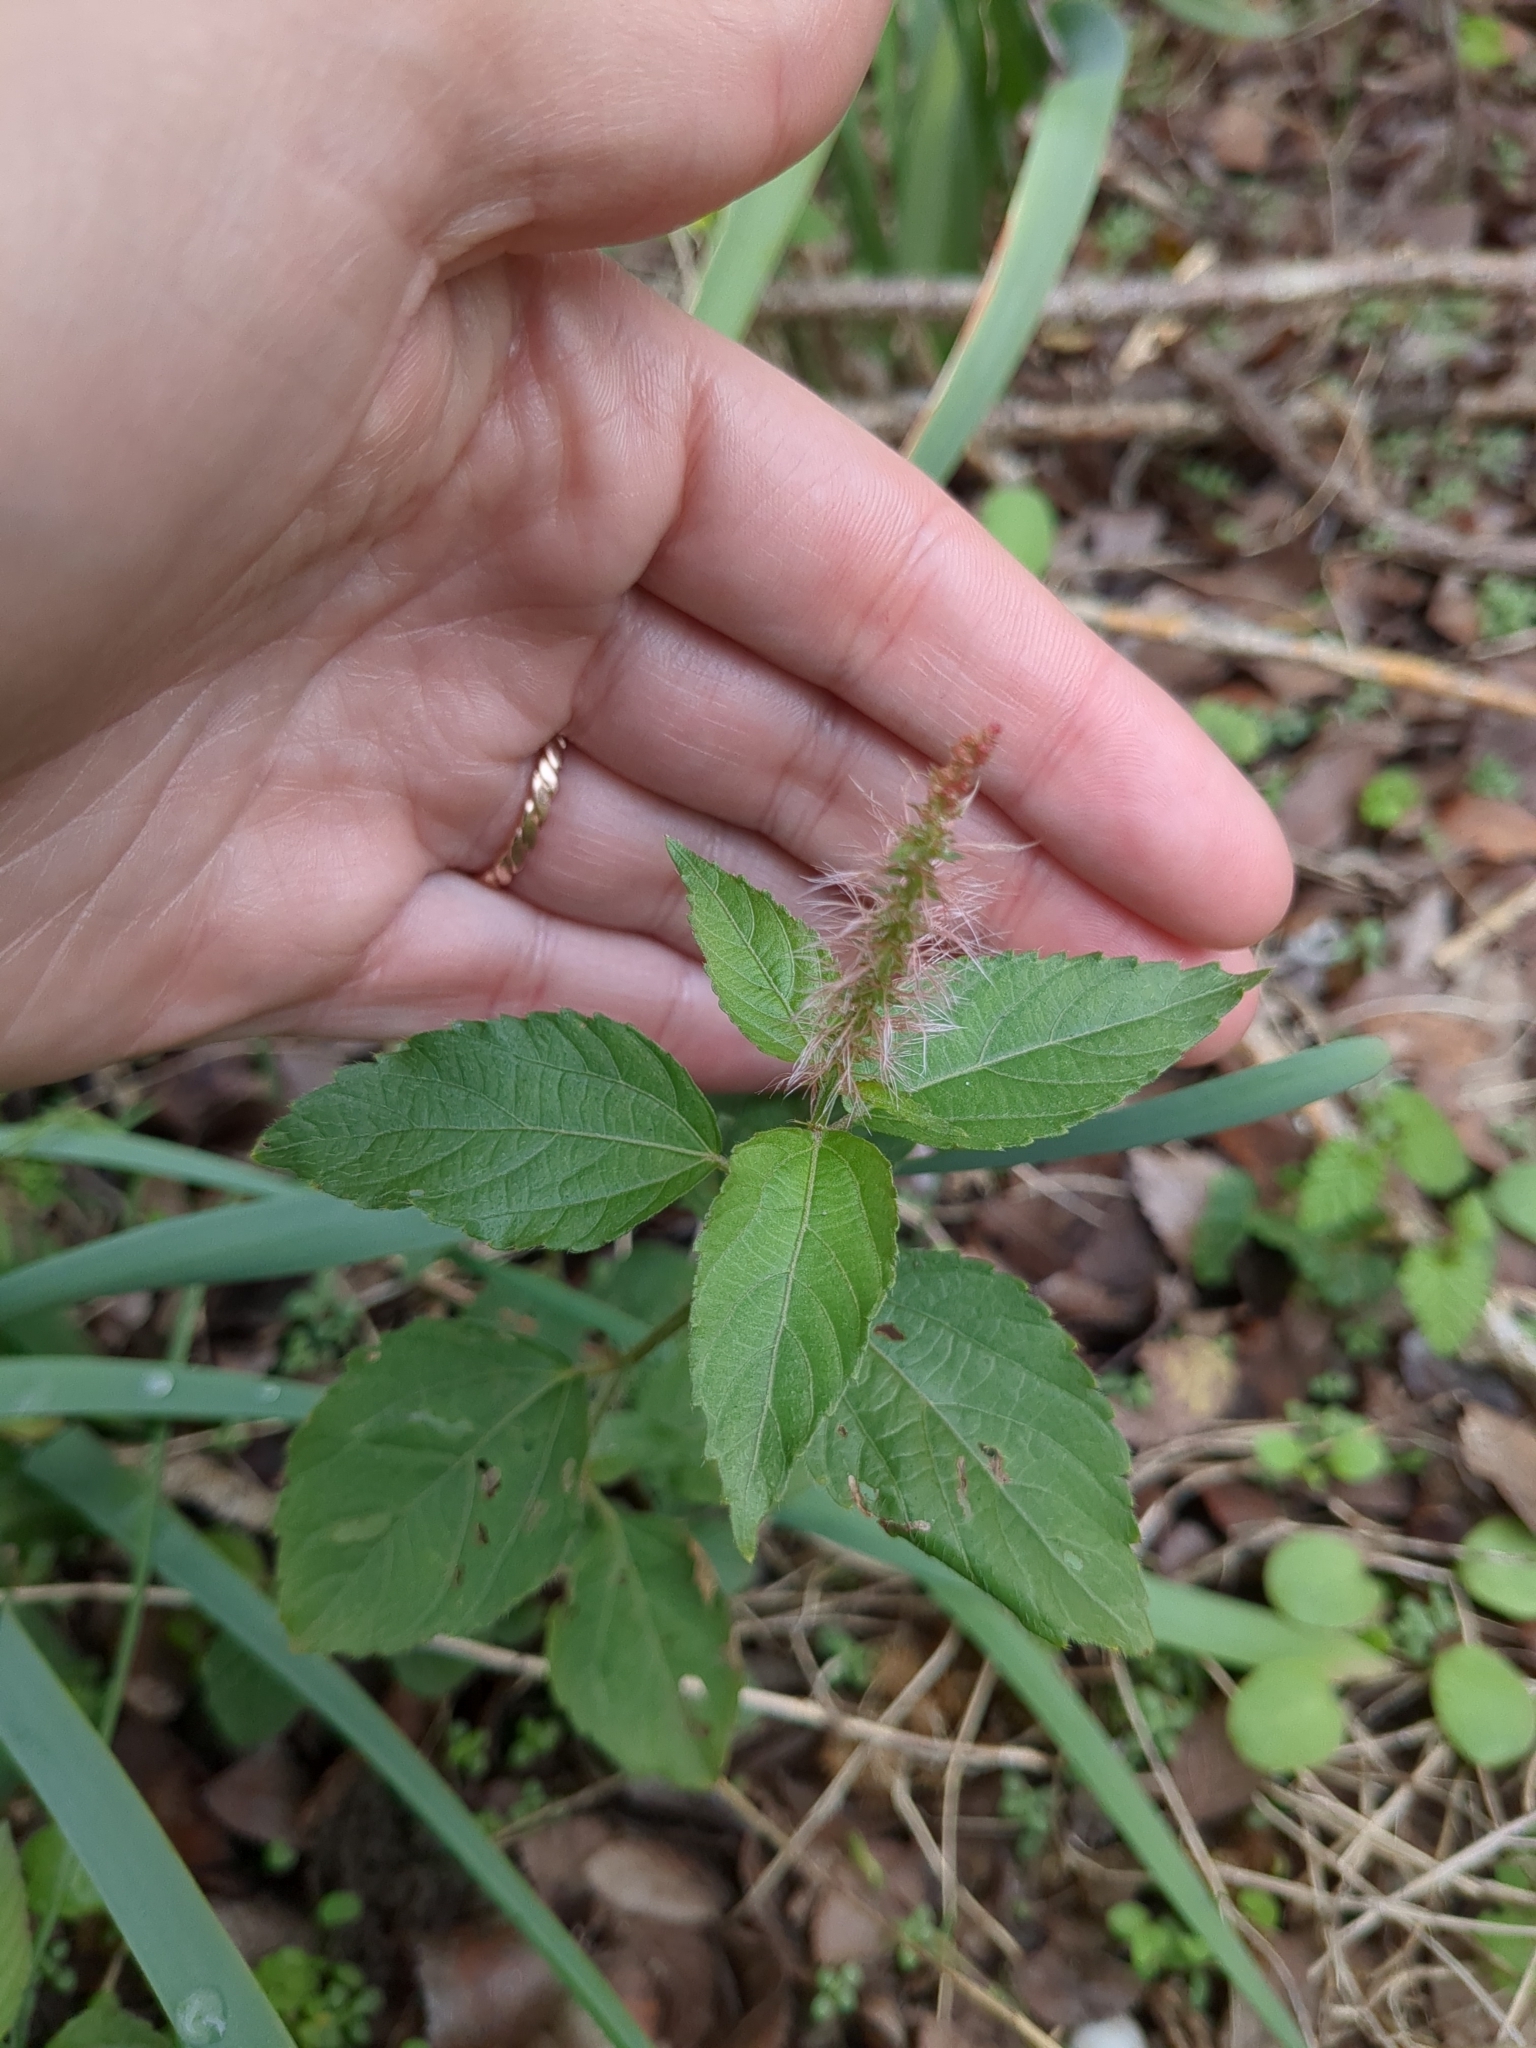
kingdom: Plantae
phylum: Tracheophyta
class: Magnoliopsida
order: Malpighiales
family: Euphorbiaceae
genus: Acalypha
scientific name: Acalypha phleoides
